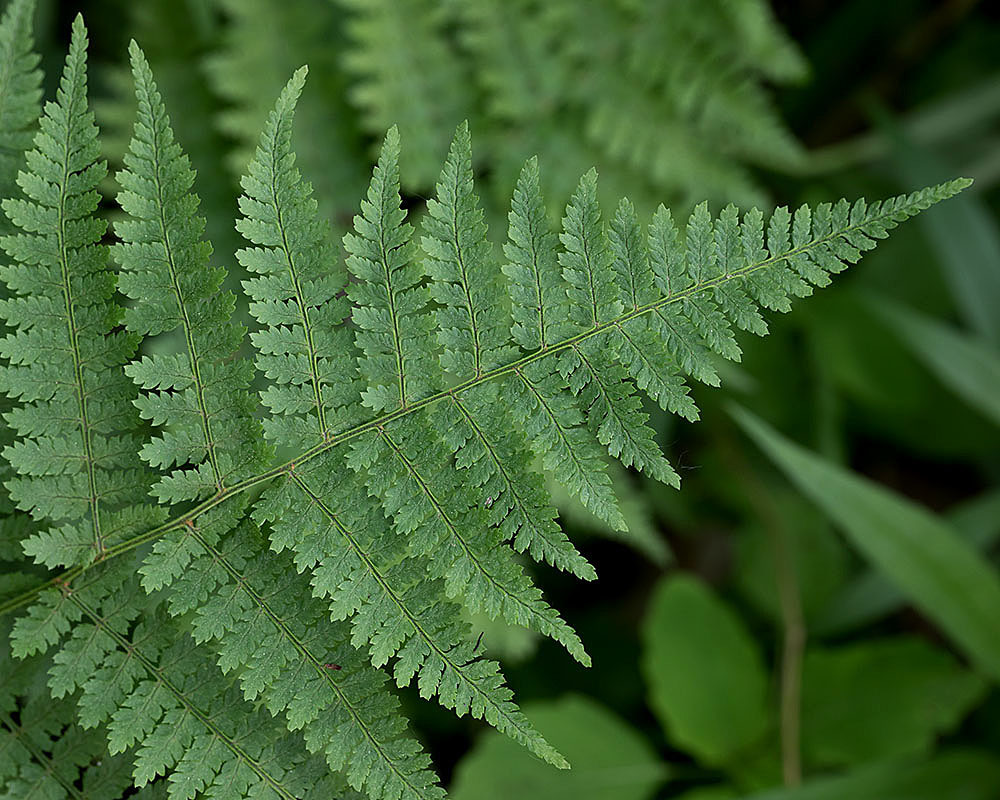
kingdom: Plantae
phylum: Tracheophyta
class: Polypodiopsida
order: Polypodiales
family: Dryopteridaceae
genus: Dryopteris
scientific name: Dryopteris intermedia
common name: Evergreen wood fern
